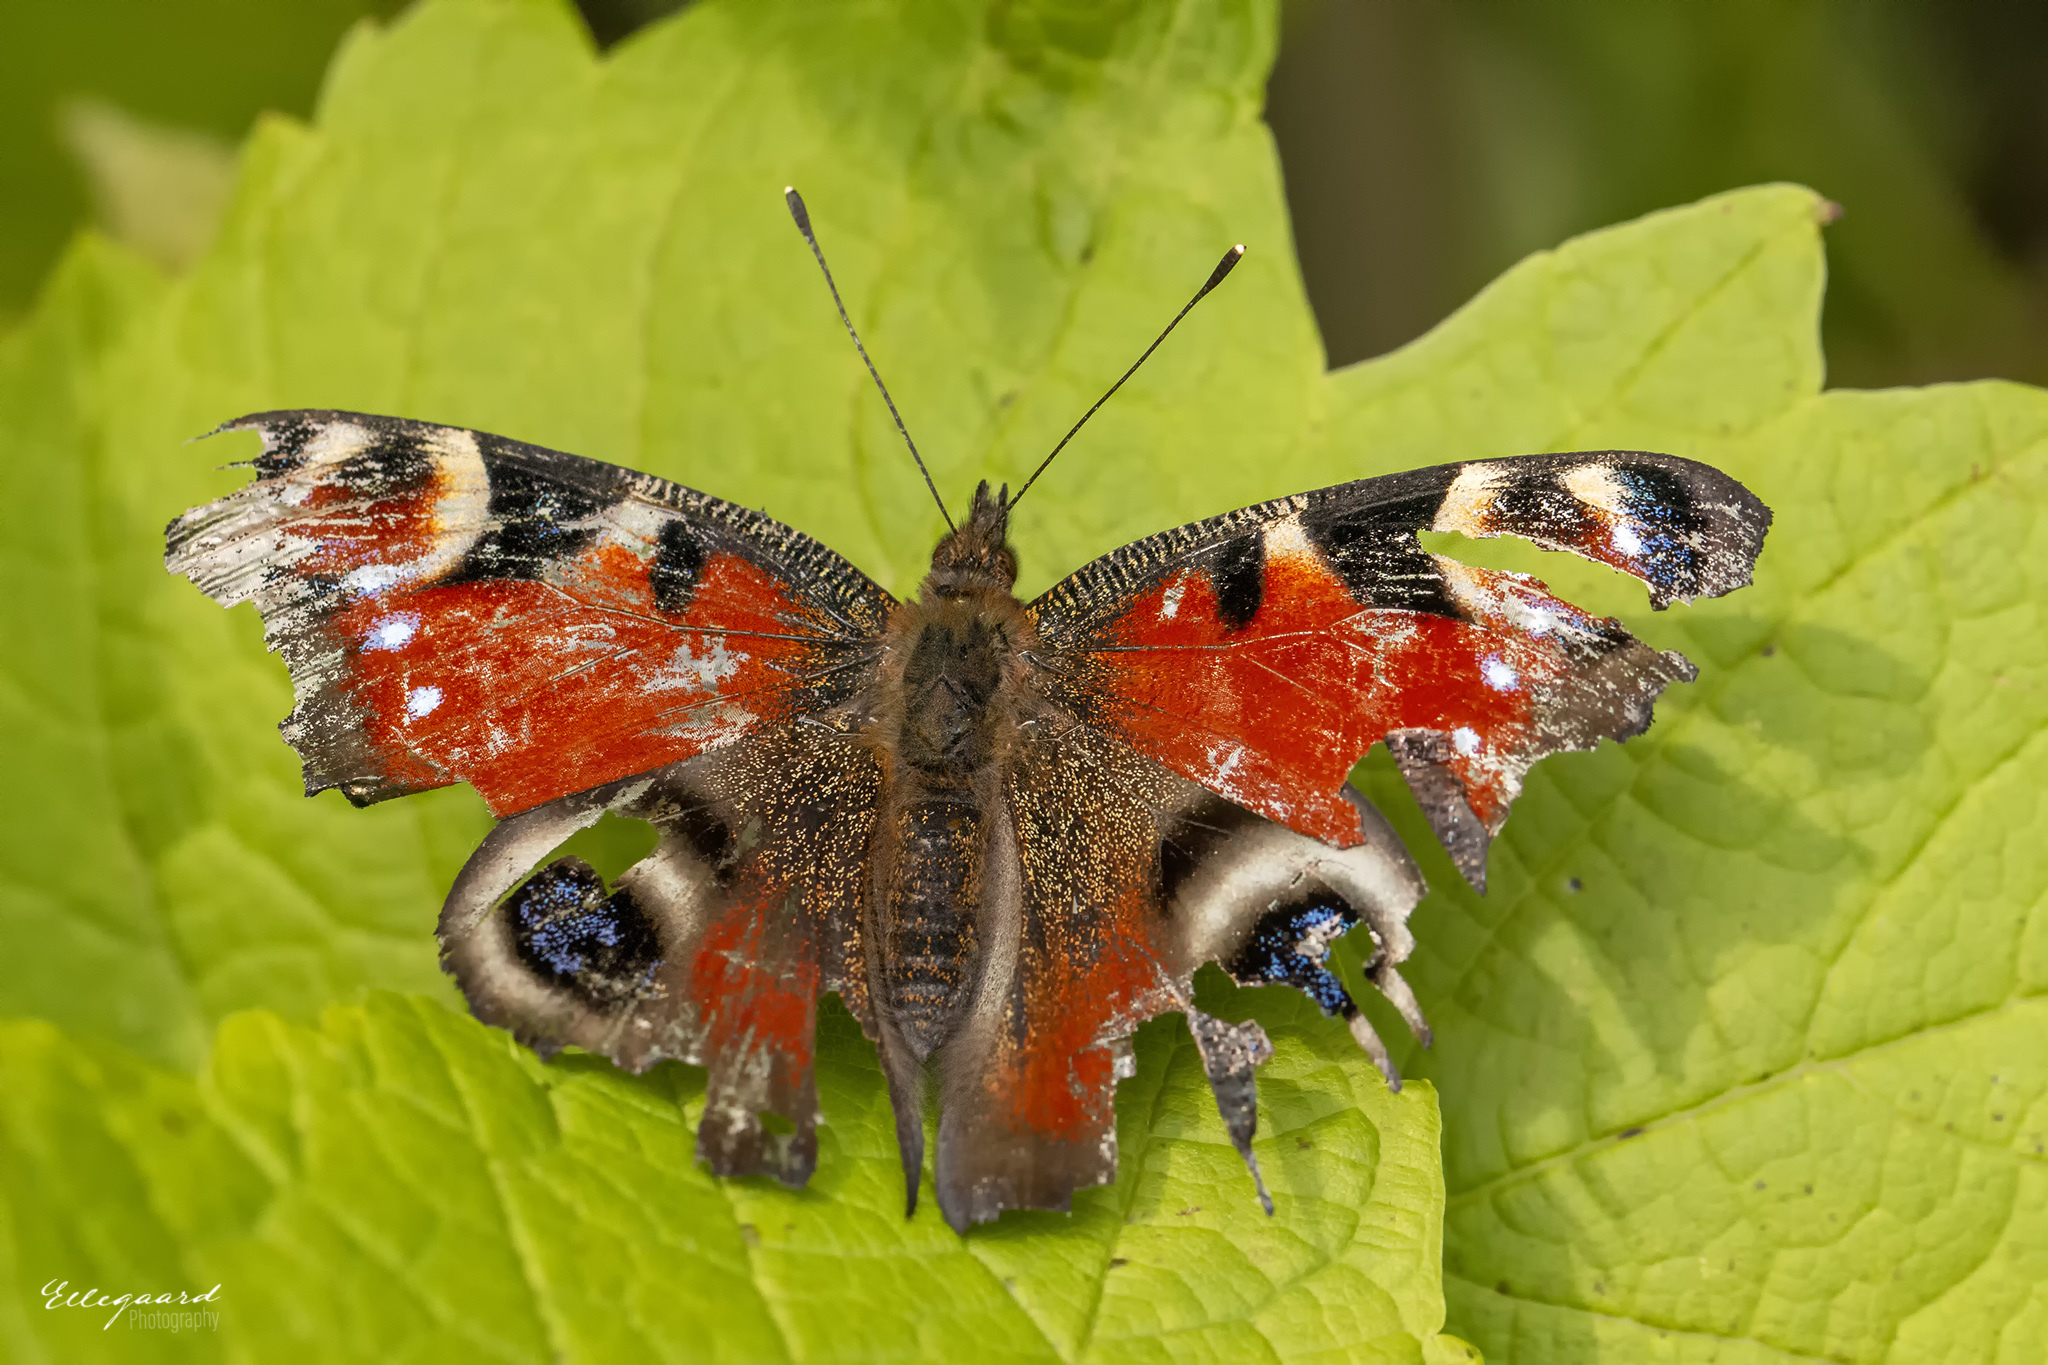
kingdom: Animalia
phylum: Arthropoda
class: Insecta
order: Lepidoptera
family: Nymphalidae
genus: Aglais
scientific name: Aglais io
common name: Peacock
